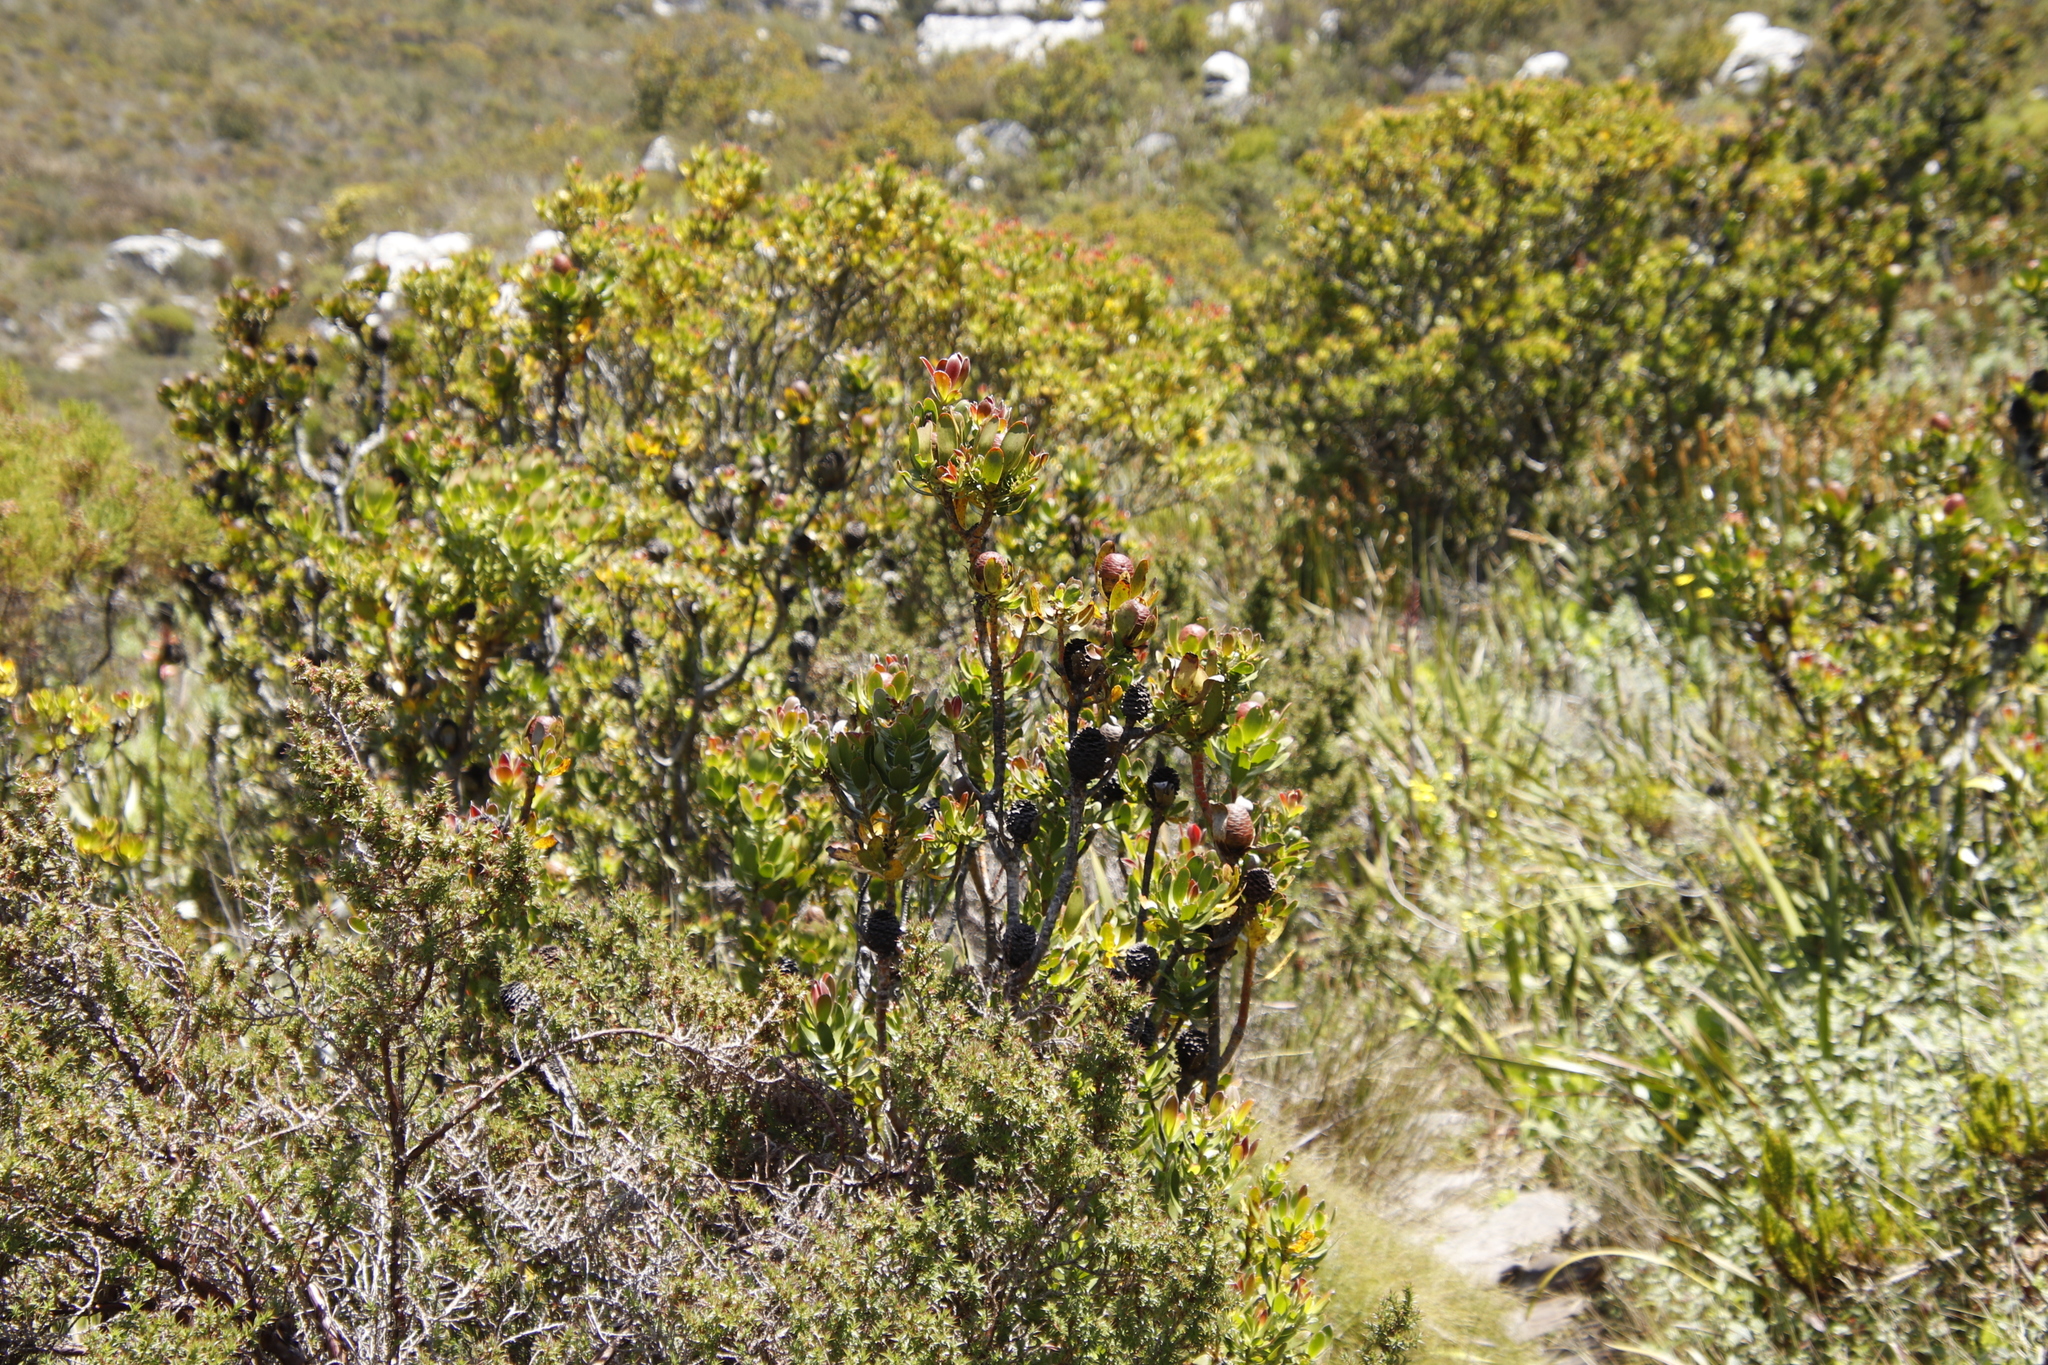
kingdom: Plantae
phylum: Tracheophyta
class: Magnoliopsida
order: Proteales
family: Proteaceae
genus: Leucadendron
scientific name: Leucadendron strobilinum
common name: Mountain rose
